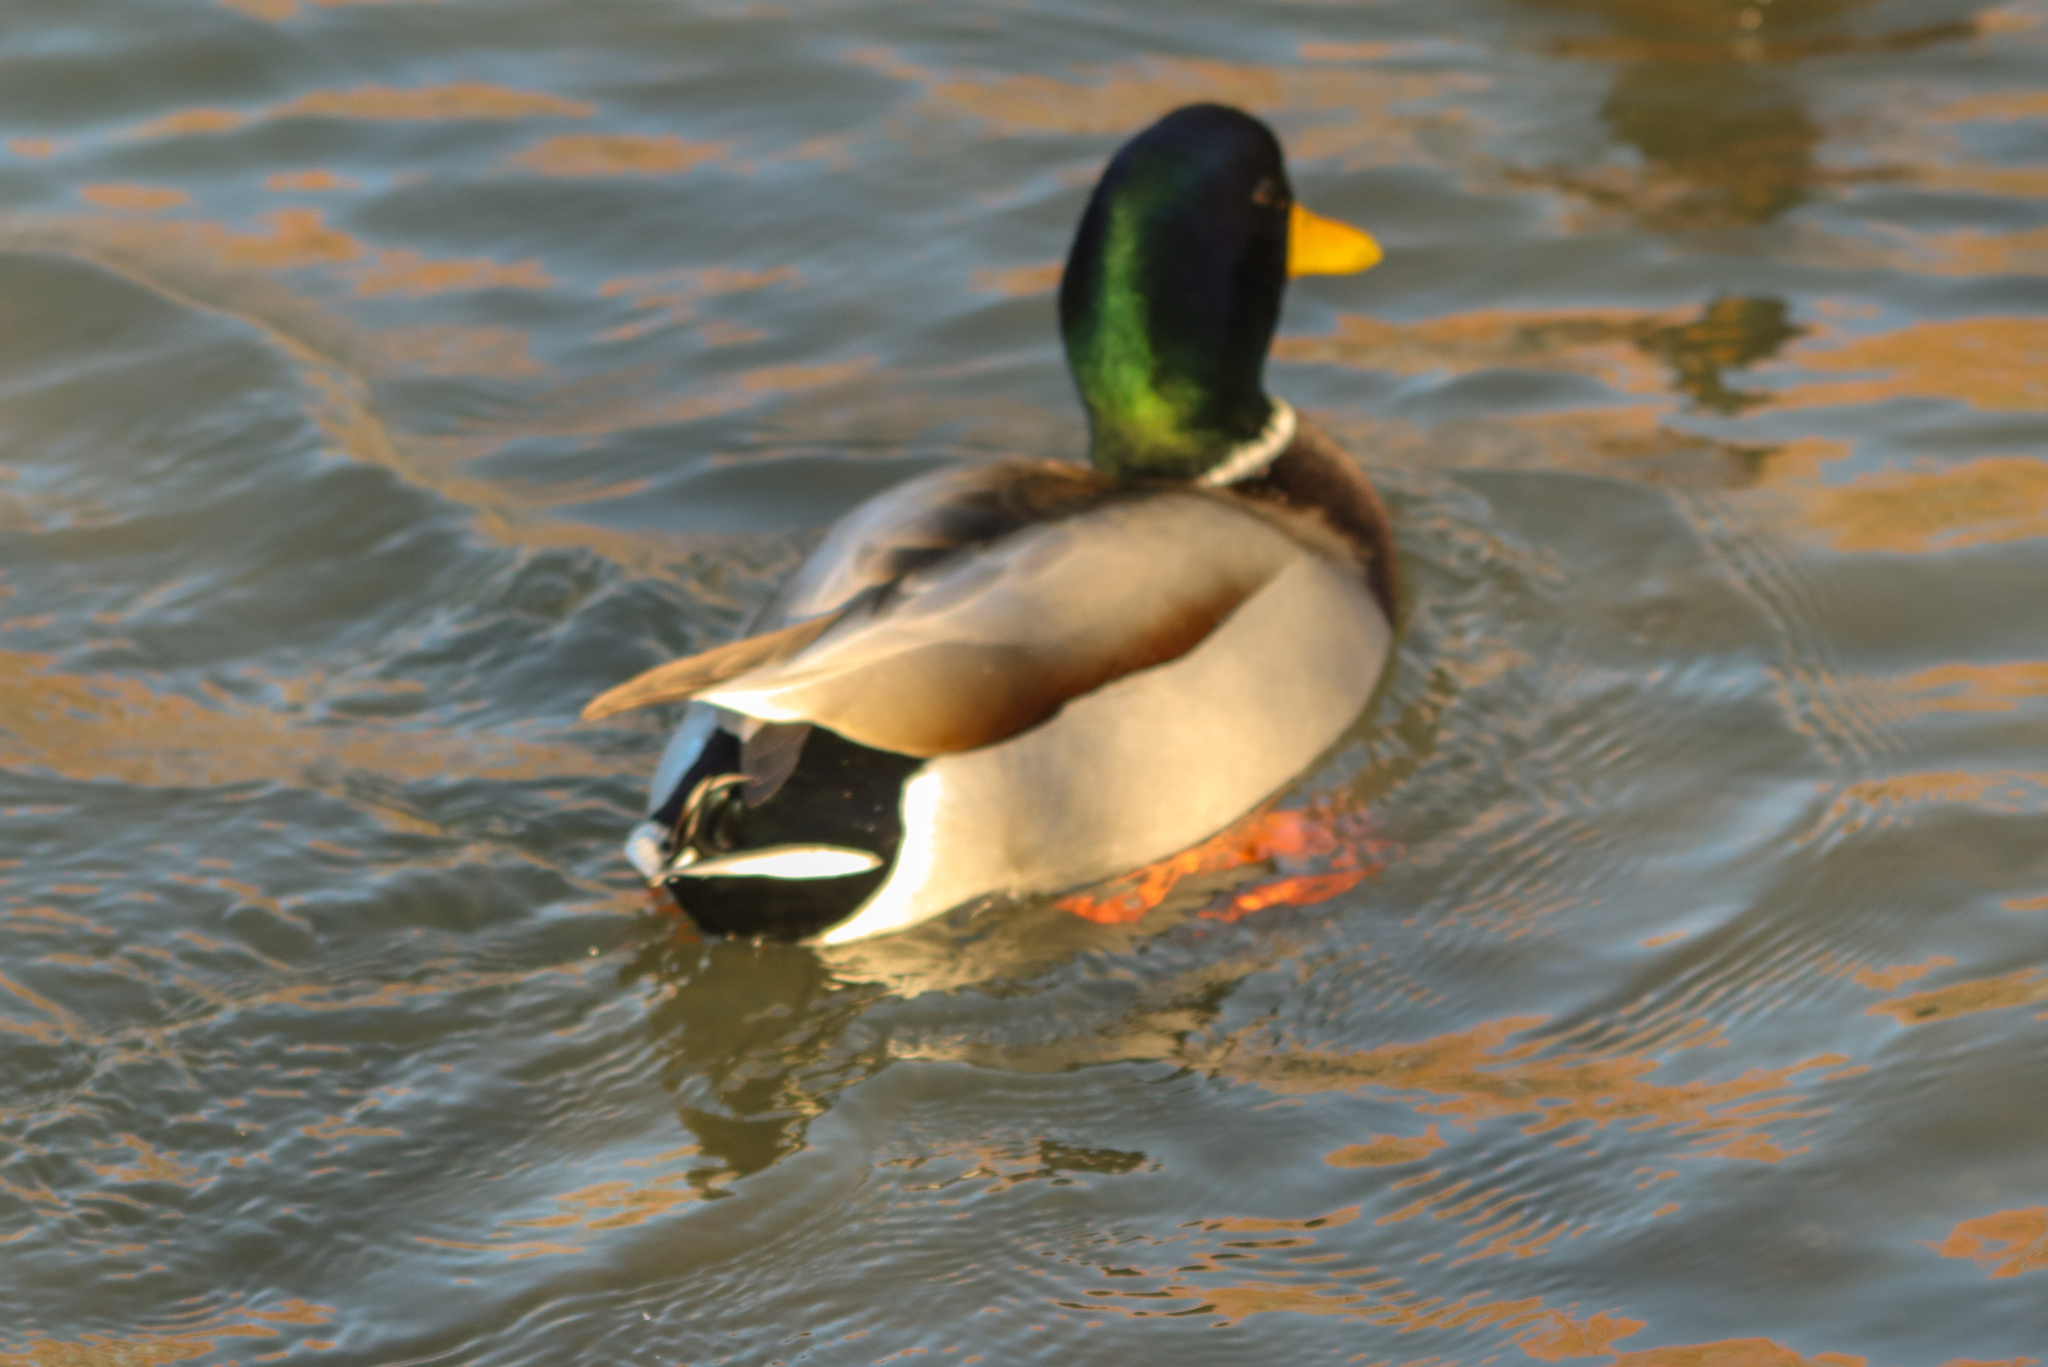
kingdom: Animalia
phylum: Chordata
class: Aves
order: Anseriformes
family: Anatidae
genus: Anas
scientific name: Anas platyrhynchos
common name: Mallard
